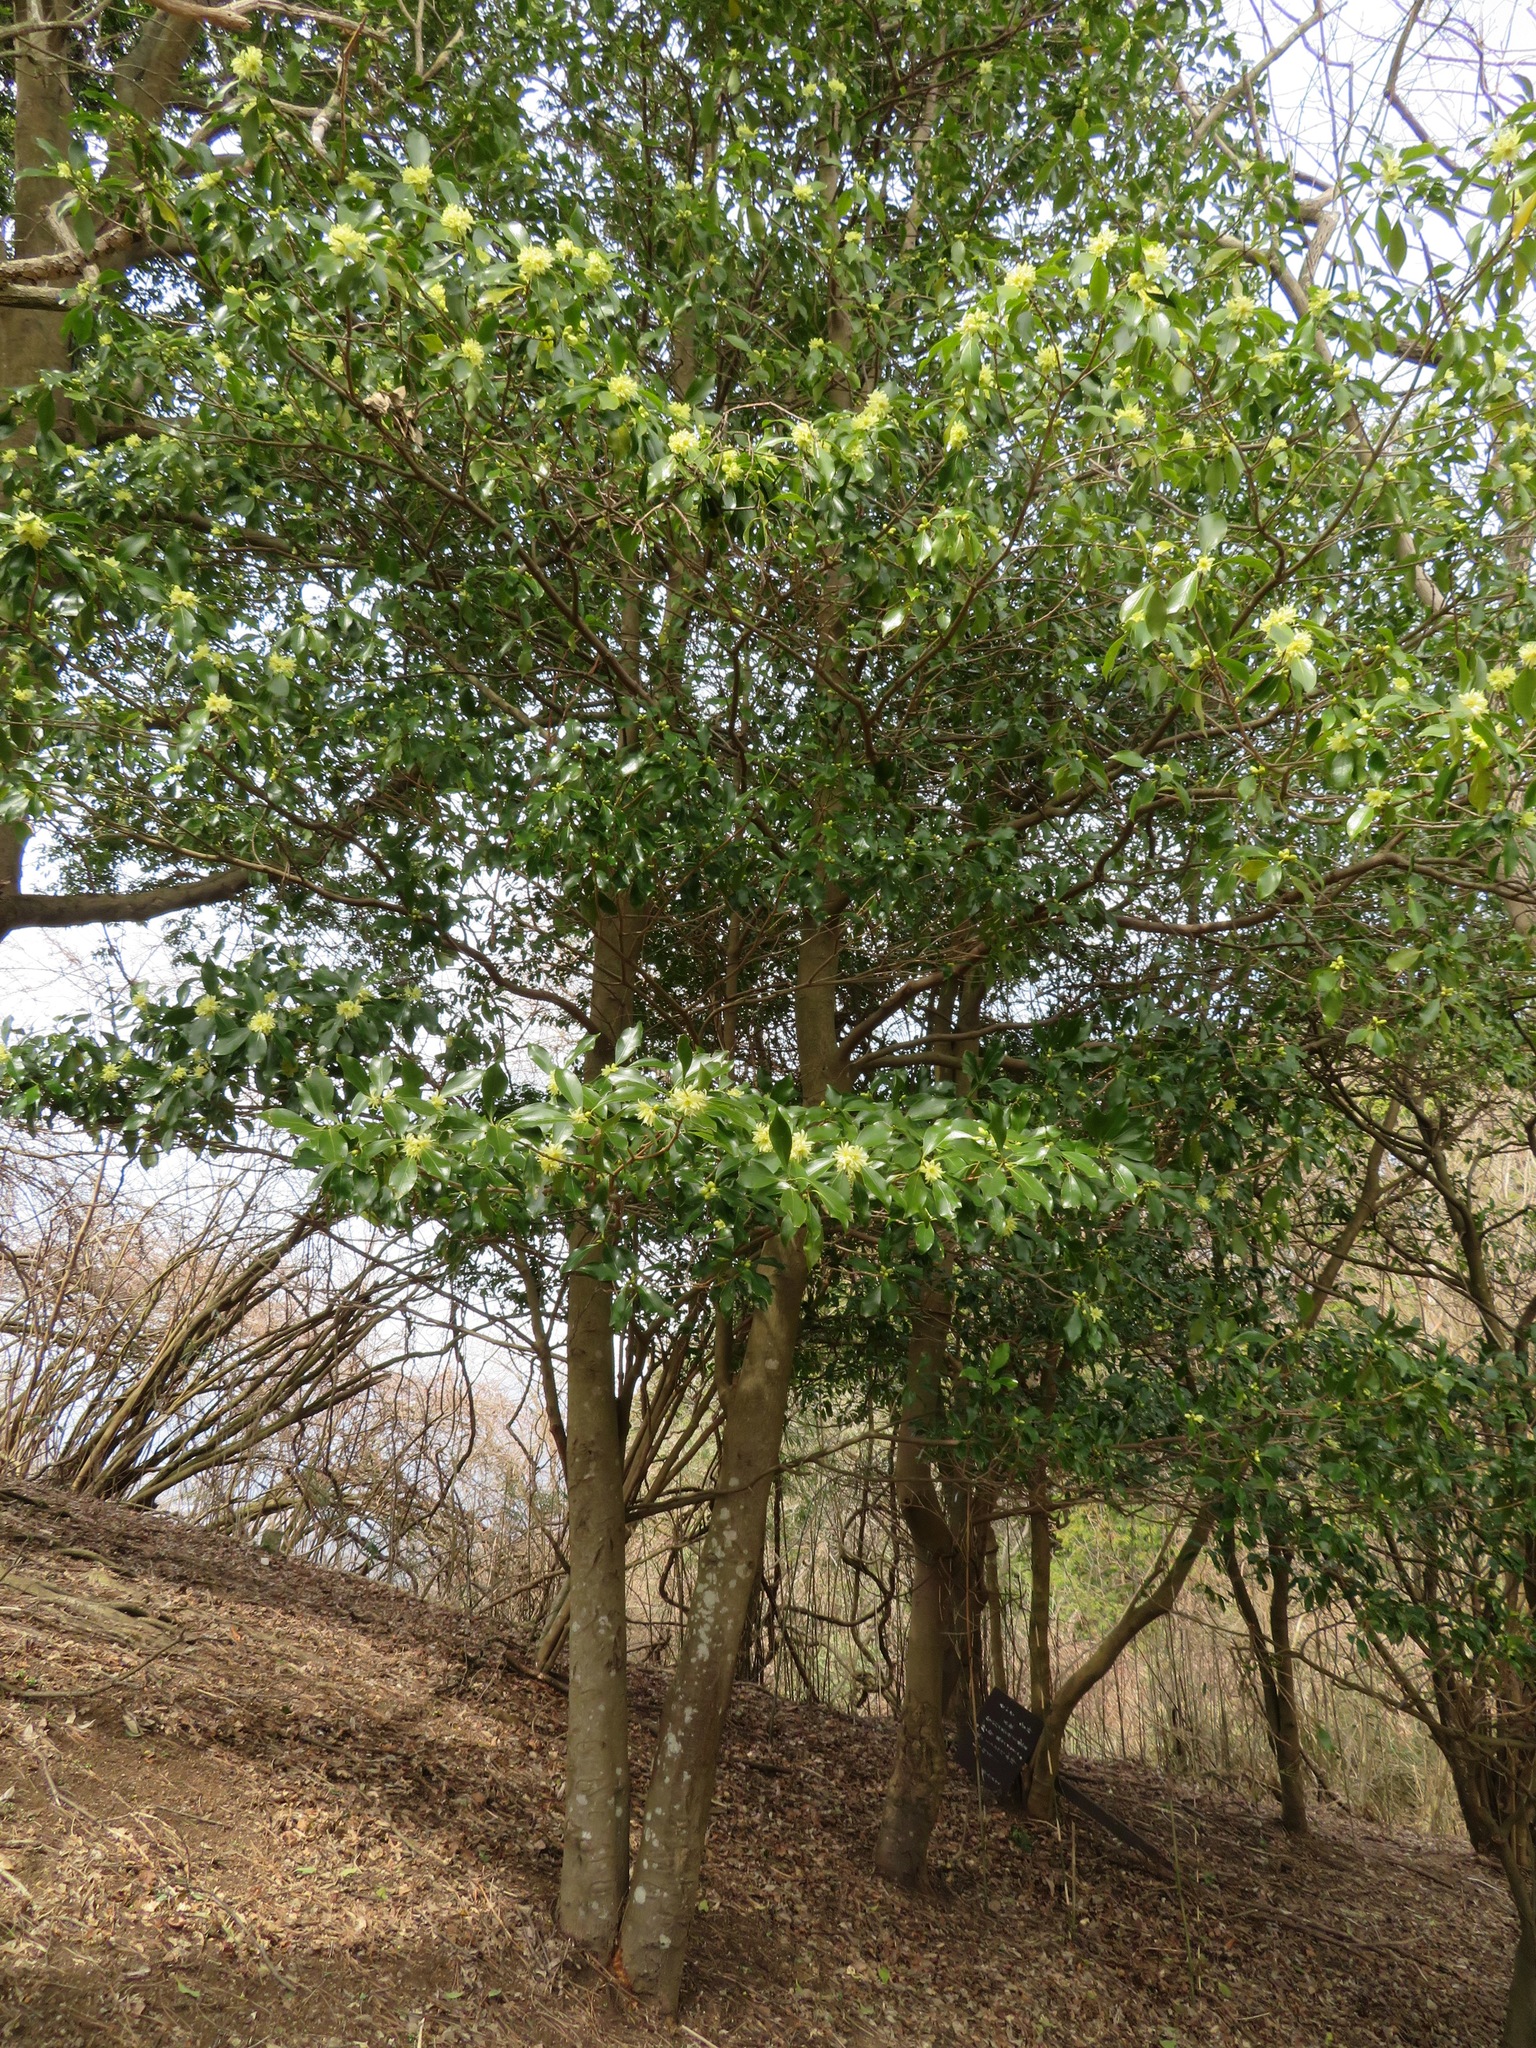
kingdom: Plantae
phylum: Tracheophyta
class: Magnoliopsida
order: Austrobaileyales
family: Schisandraceae
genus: Illicium
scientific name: Illicium anisatum
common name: Sacred anisetree
